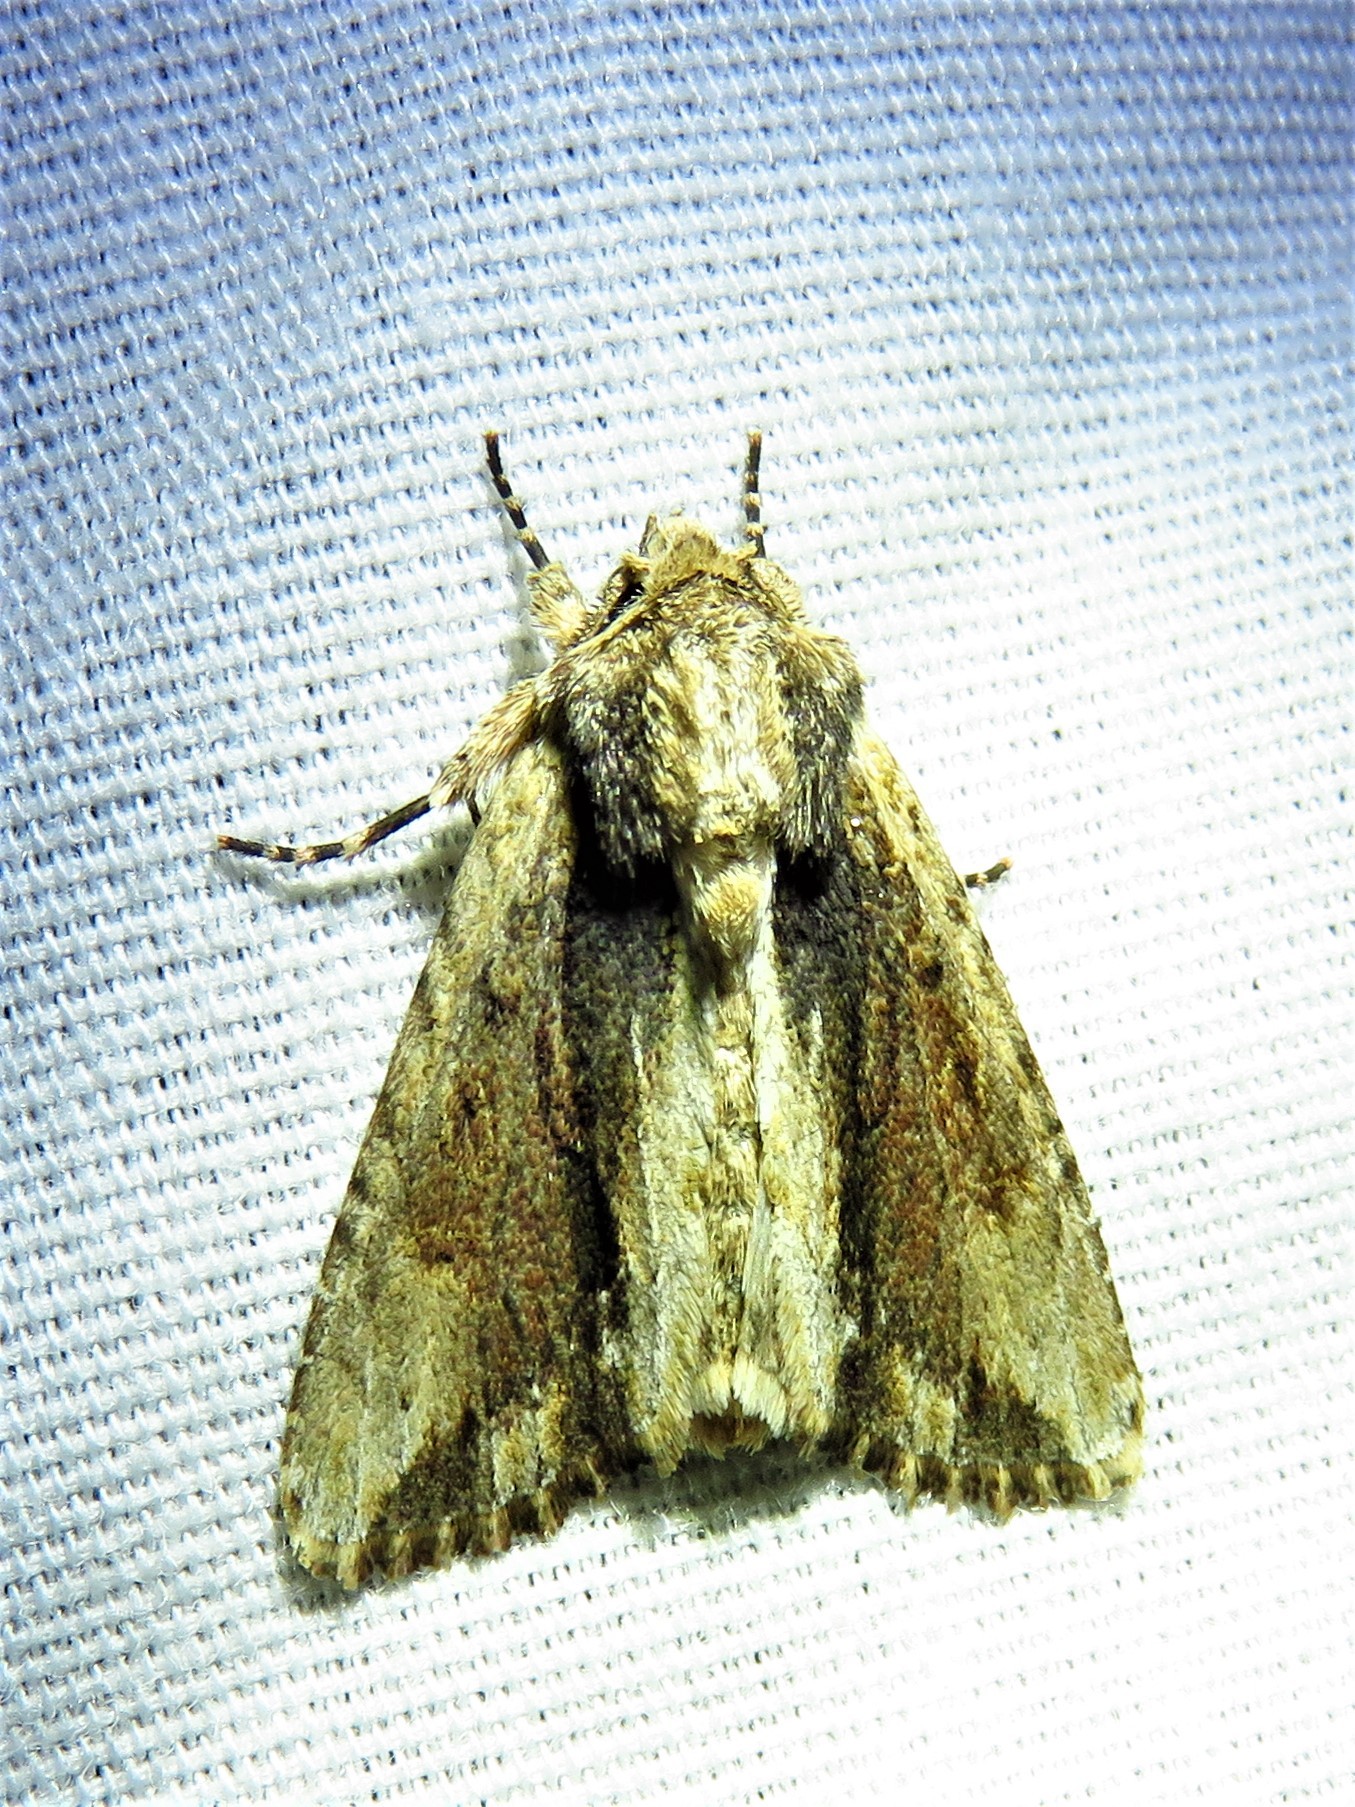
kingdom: Animalia
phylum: Arthropoda
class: Insecta
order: Lepidoptera
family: Noctuidae
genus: Achatia
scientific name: Achatia mucens
